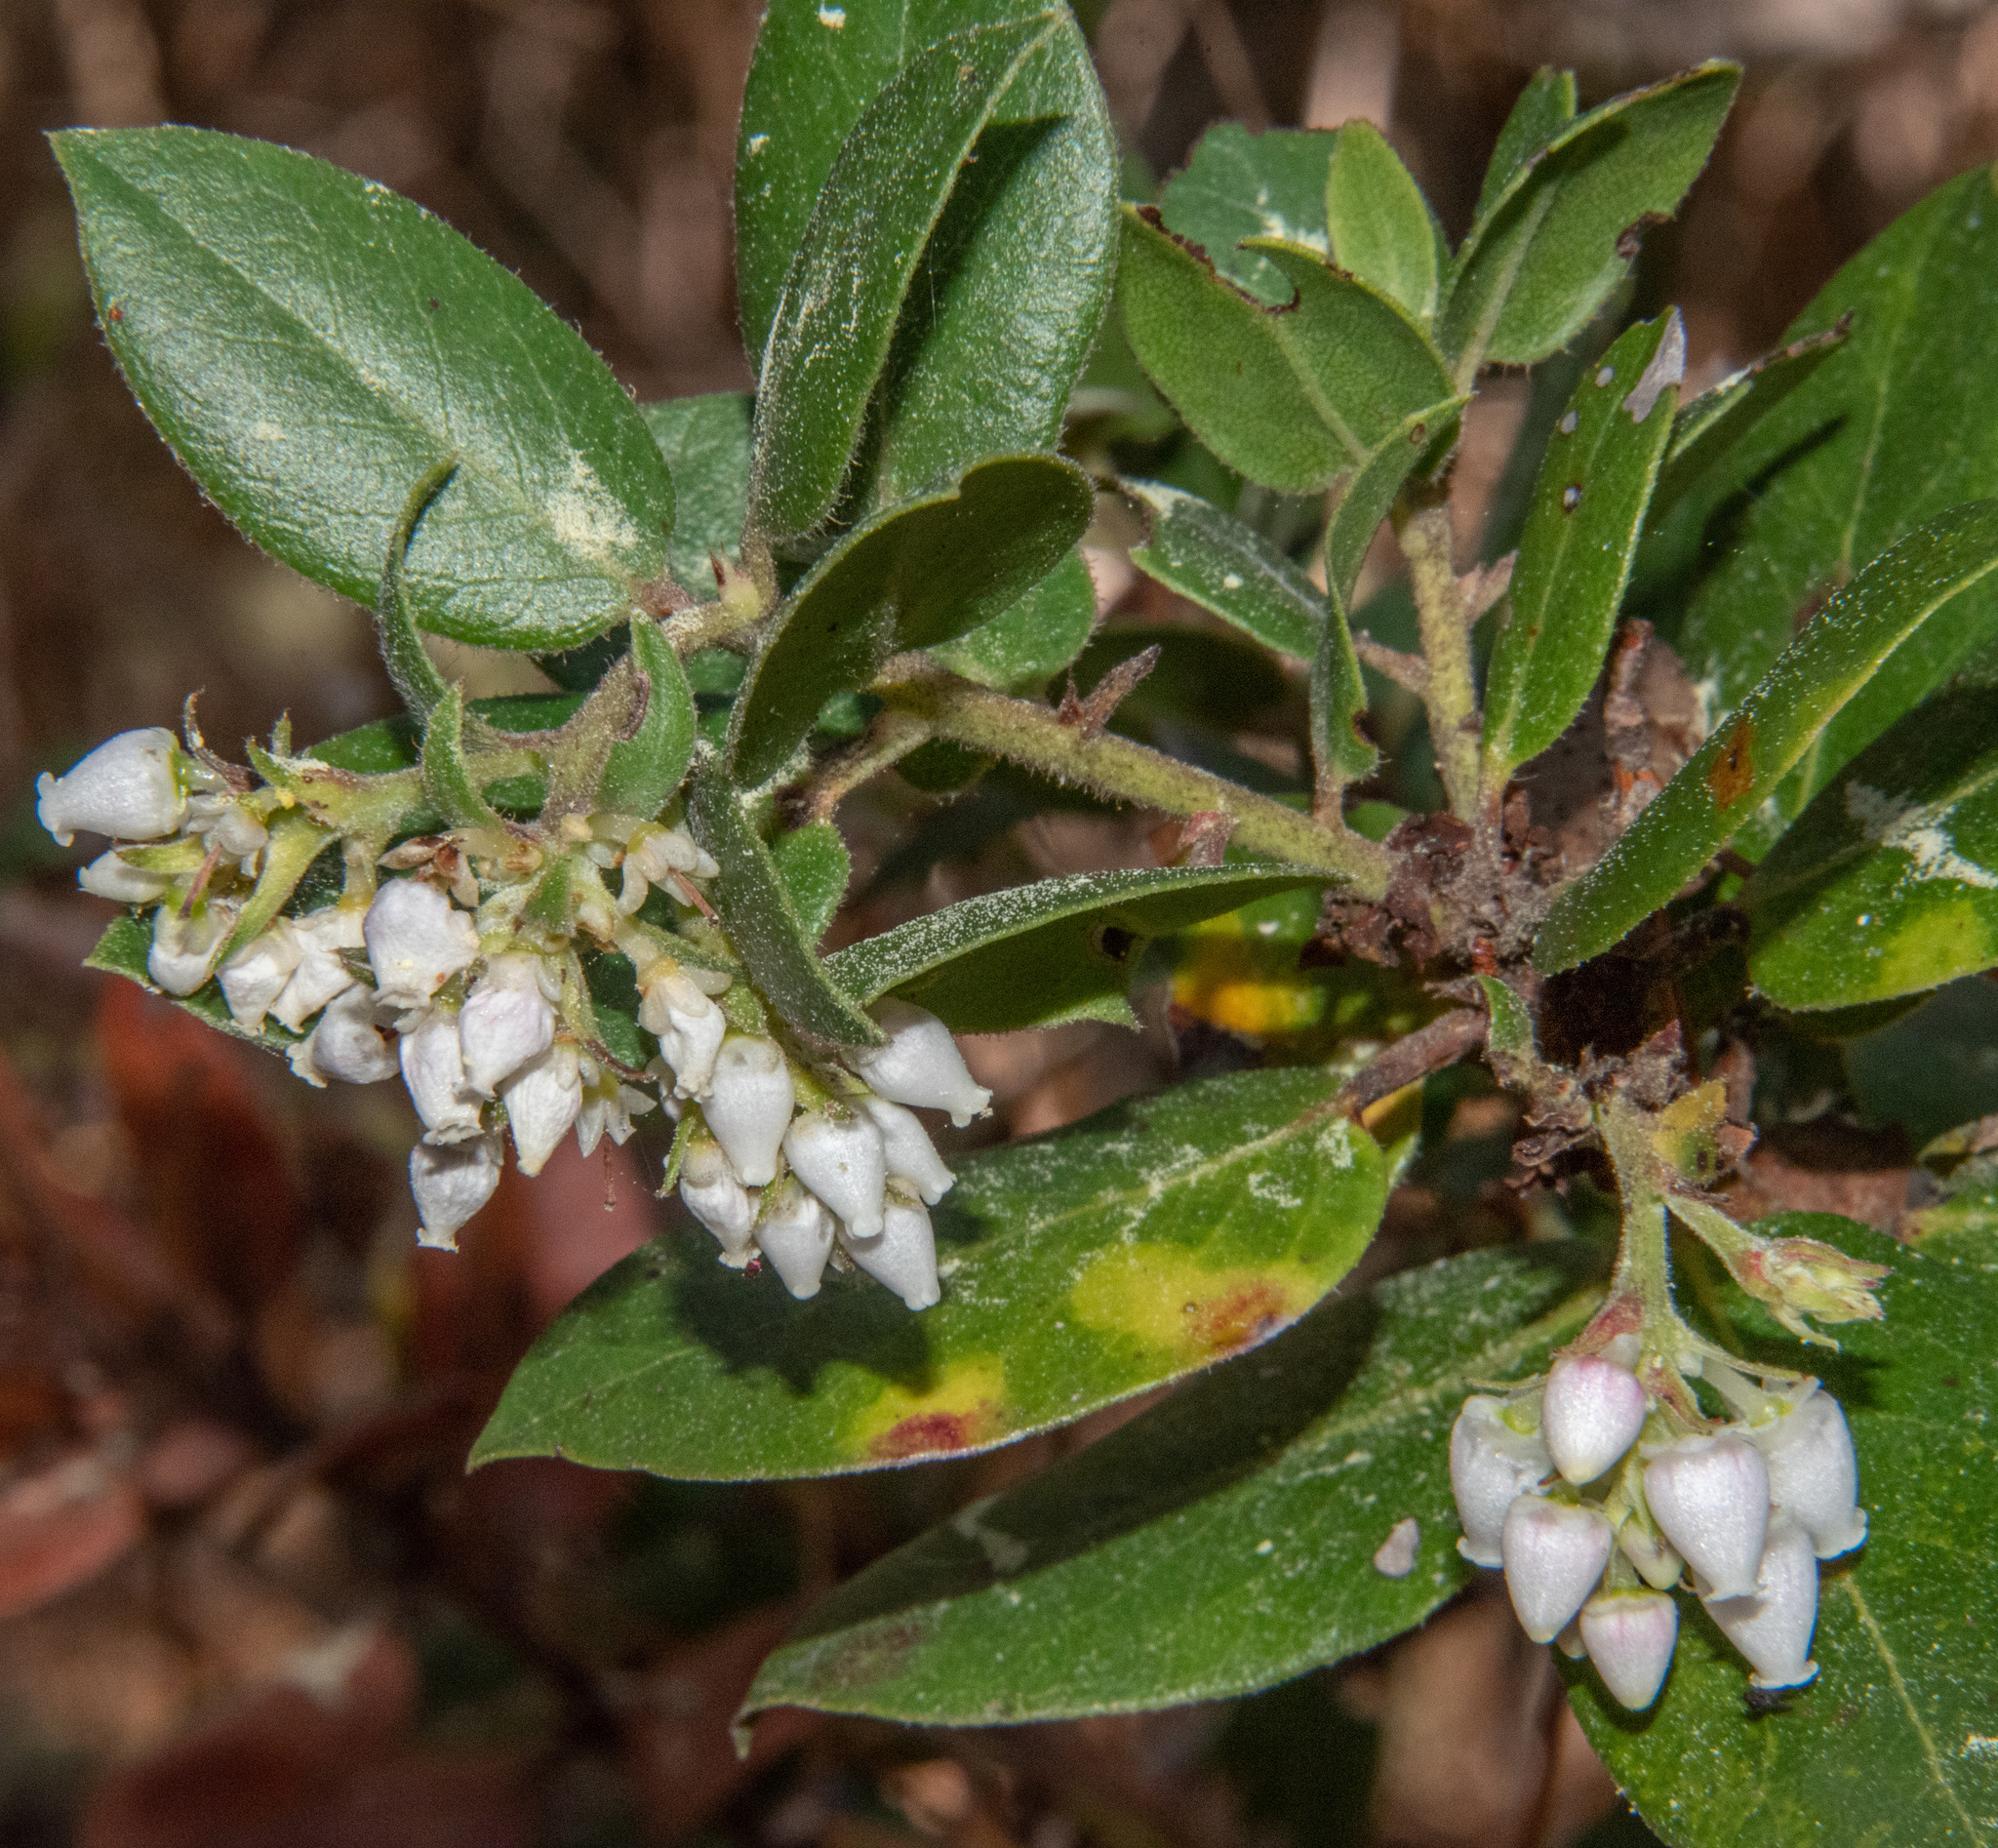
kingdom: Plantae
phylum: Tracheophyta
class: Magnoliopsida
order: Ericales
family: Ericaceae
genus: Arctostaphylos
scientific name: Arctostaphylos tomentosa
